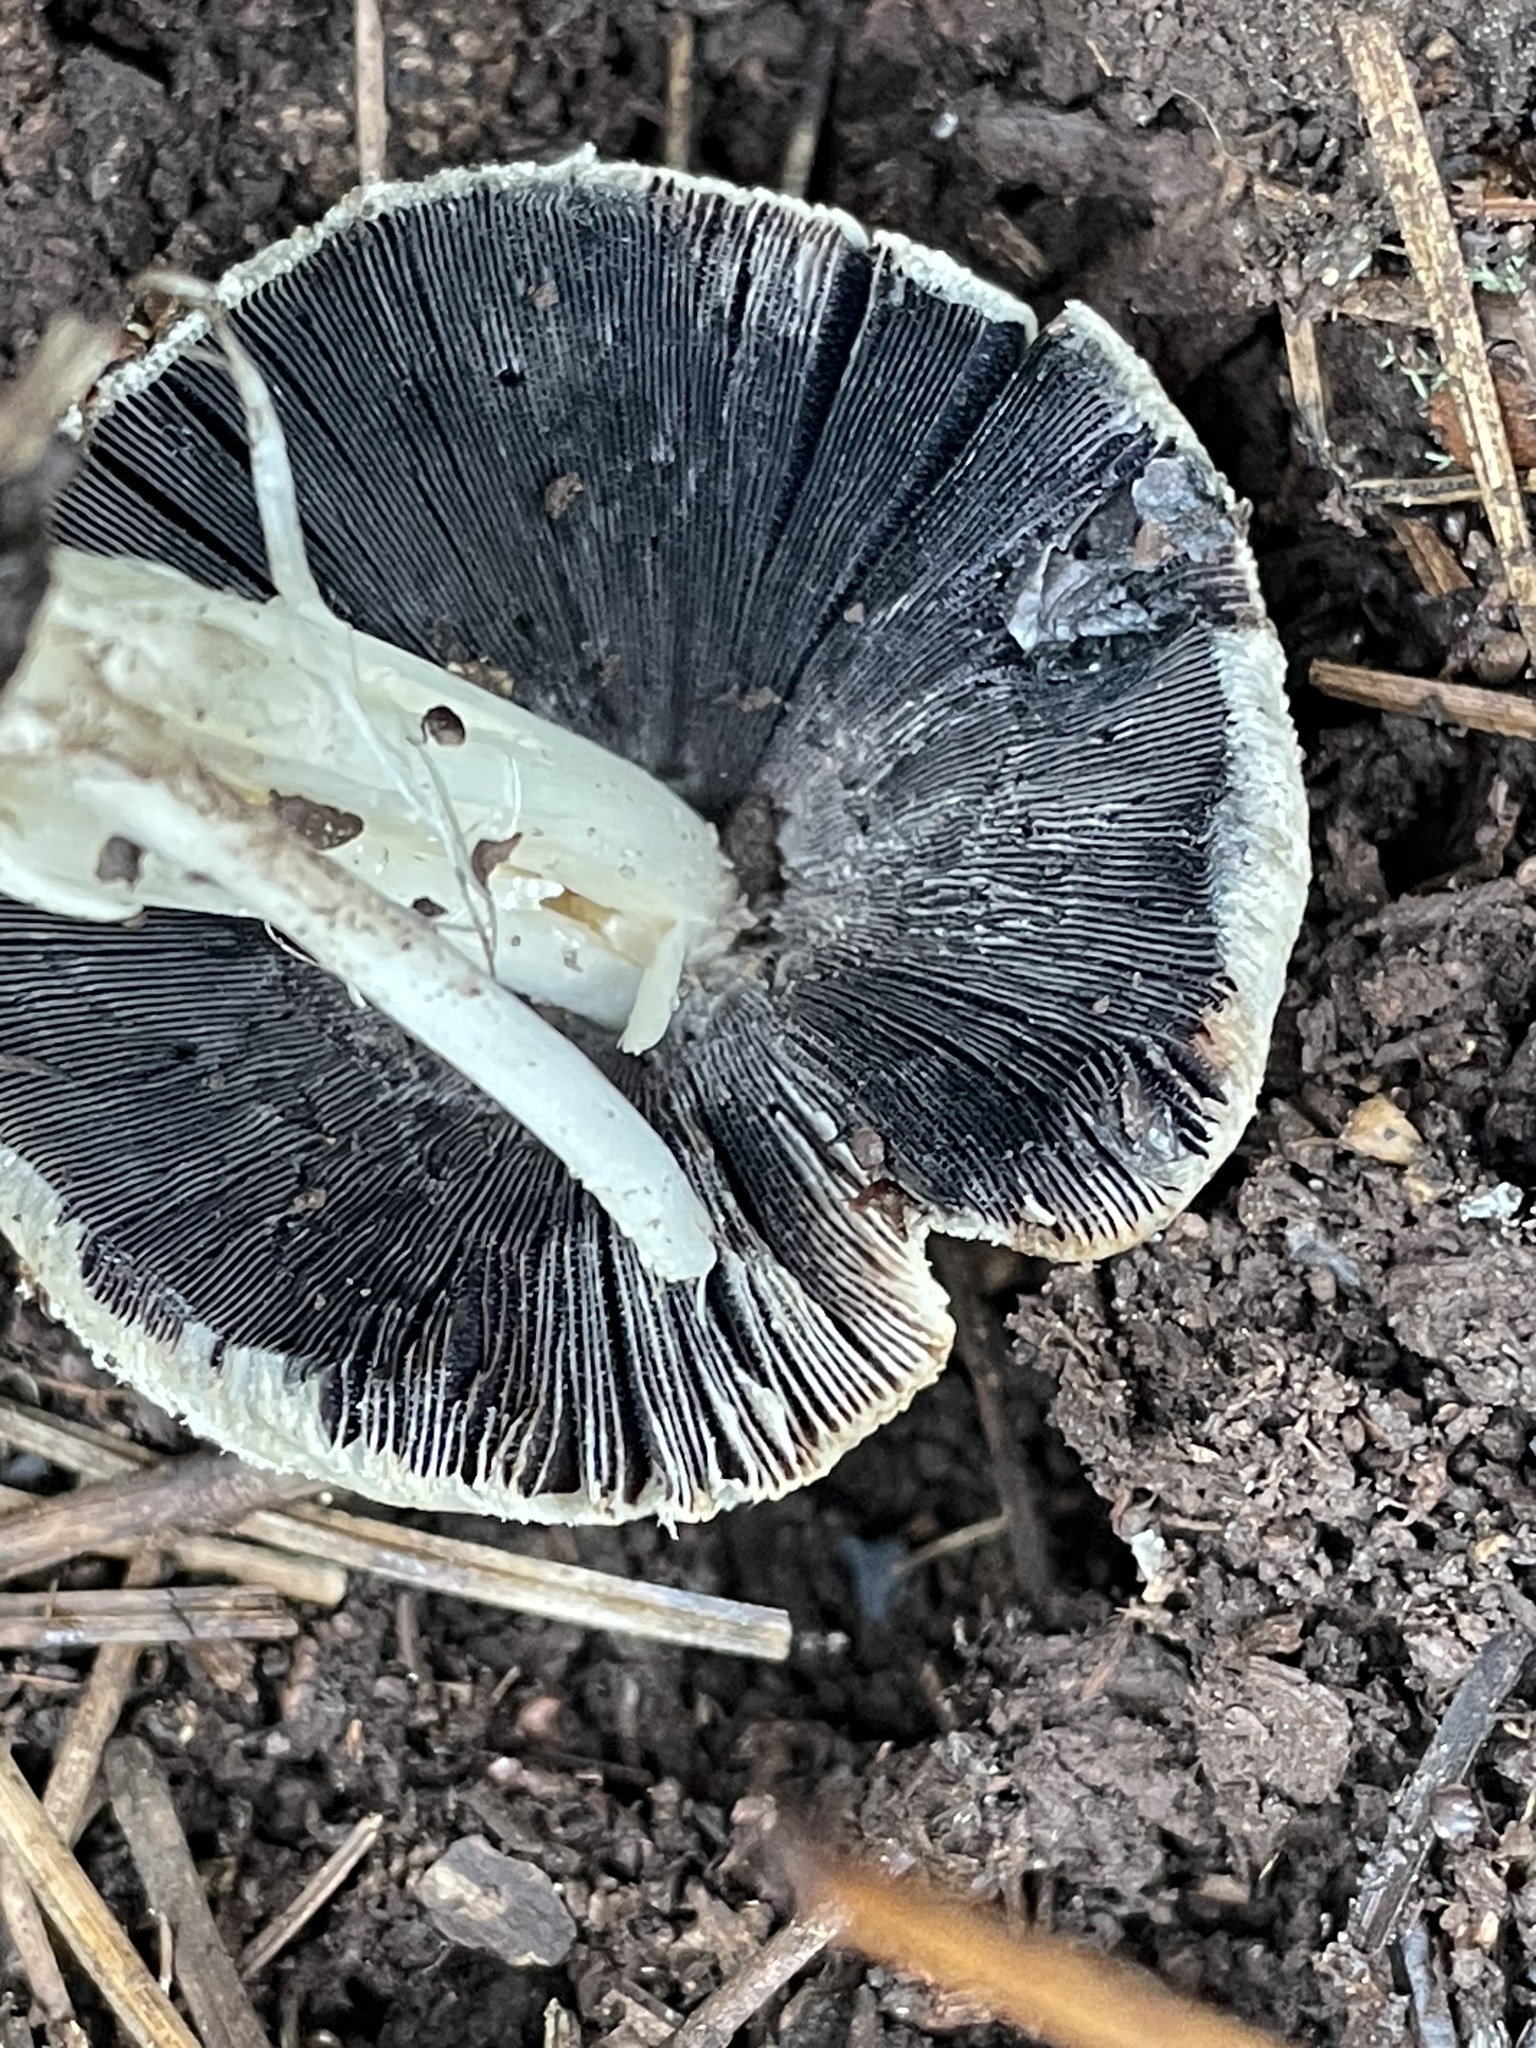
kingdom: Fungi
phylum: Basidiomycota
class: Agaricomycetes
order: Agaricales
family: Psathyrellaceae
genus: Coprinellus
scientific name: Coprinellus bipellis
